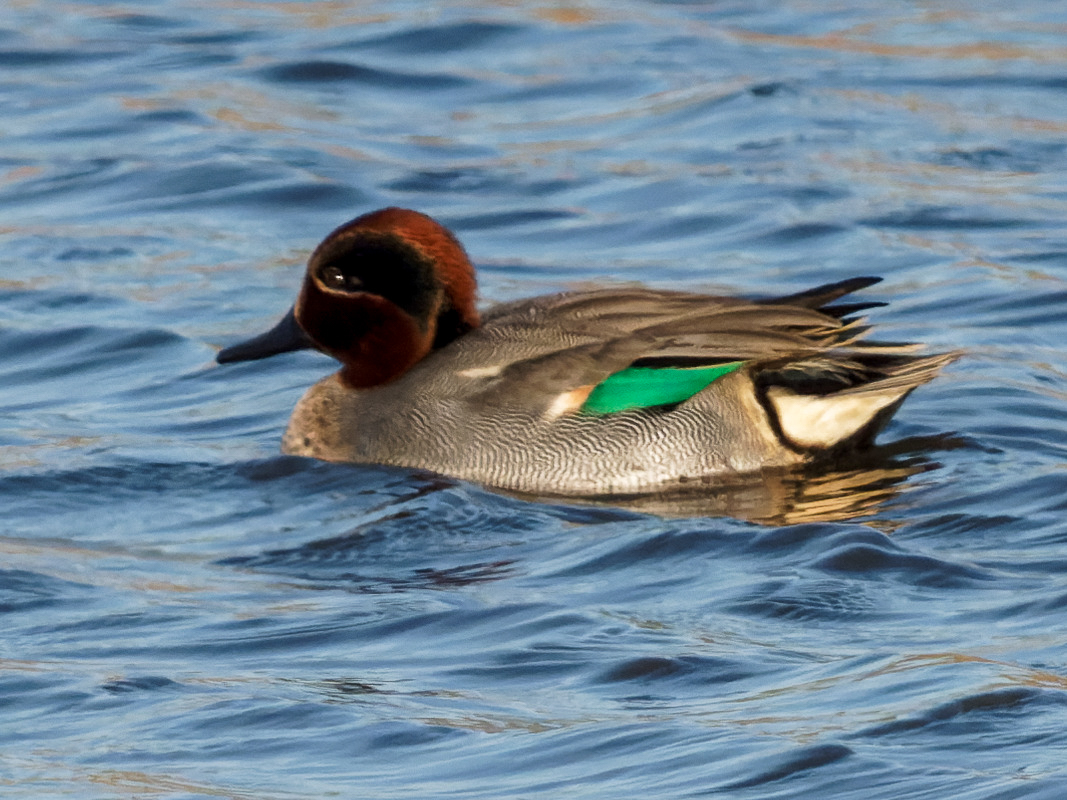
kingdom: Animalia
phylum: Chordata
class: Aves
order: Anseriformes
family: Anatidae
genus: Anas
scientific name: Anas crecca
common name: Eurasian teal
